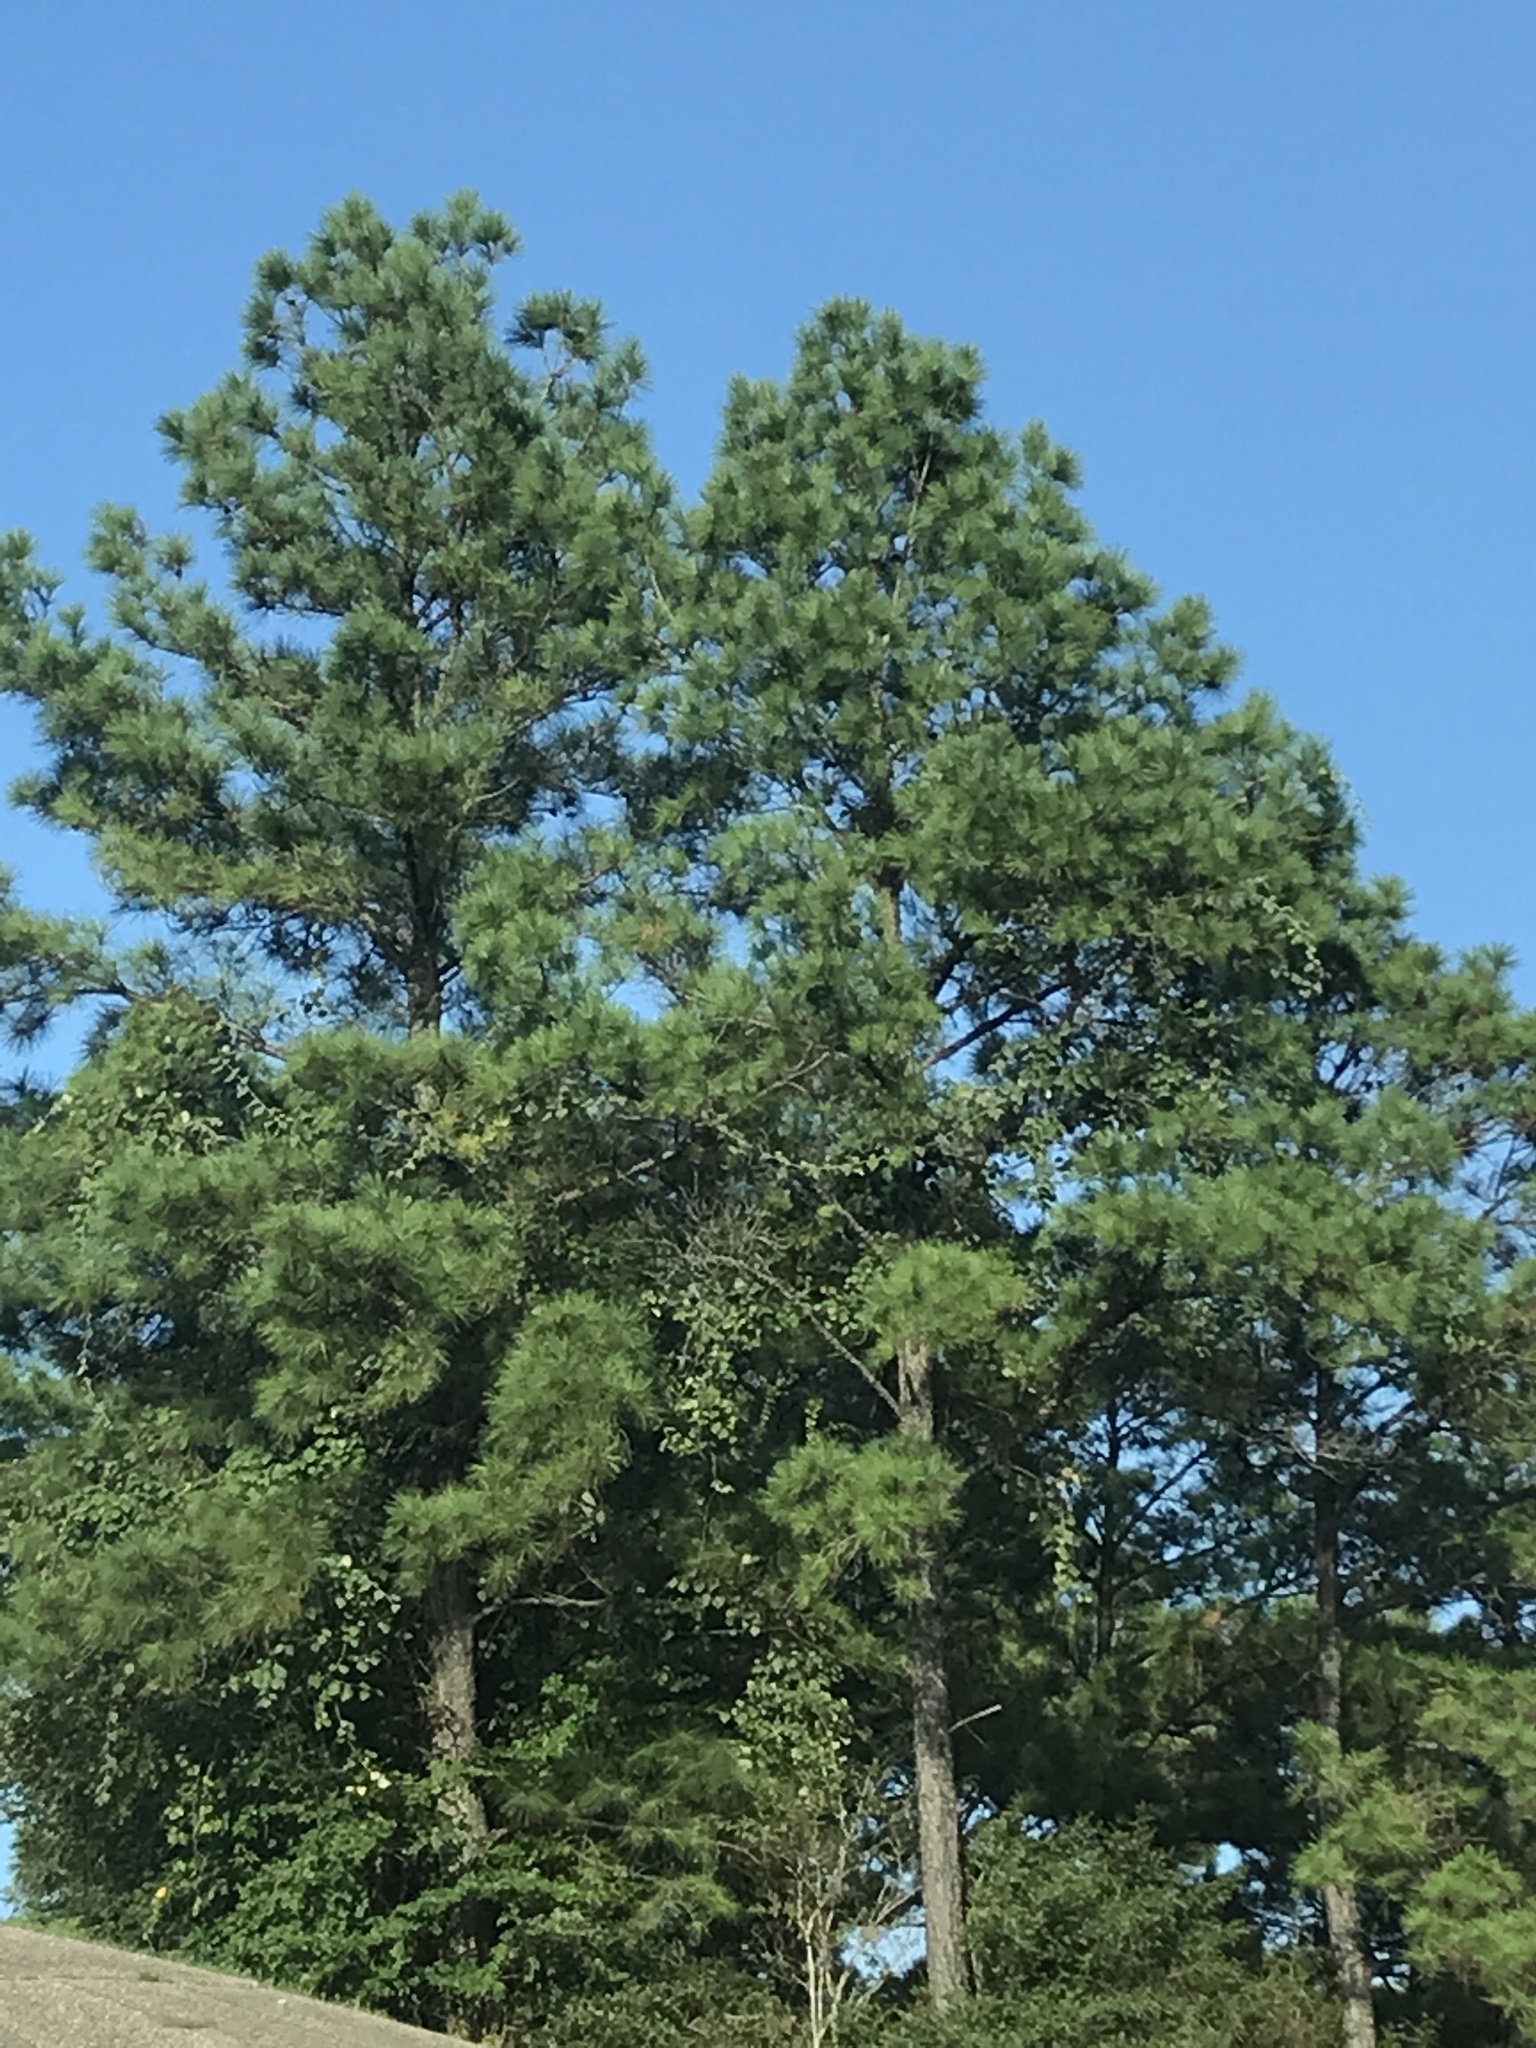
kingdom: Plantae
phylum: Tracheophyta
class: Pinopsida
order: Pinales
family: Pinaceae
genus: Pinus
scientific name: Pinus taeda
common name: Loblolly pine
